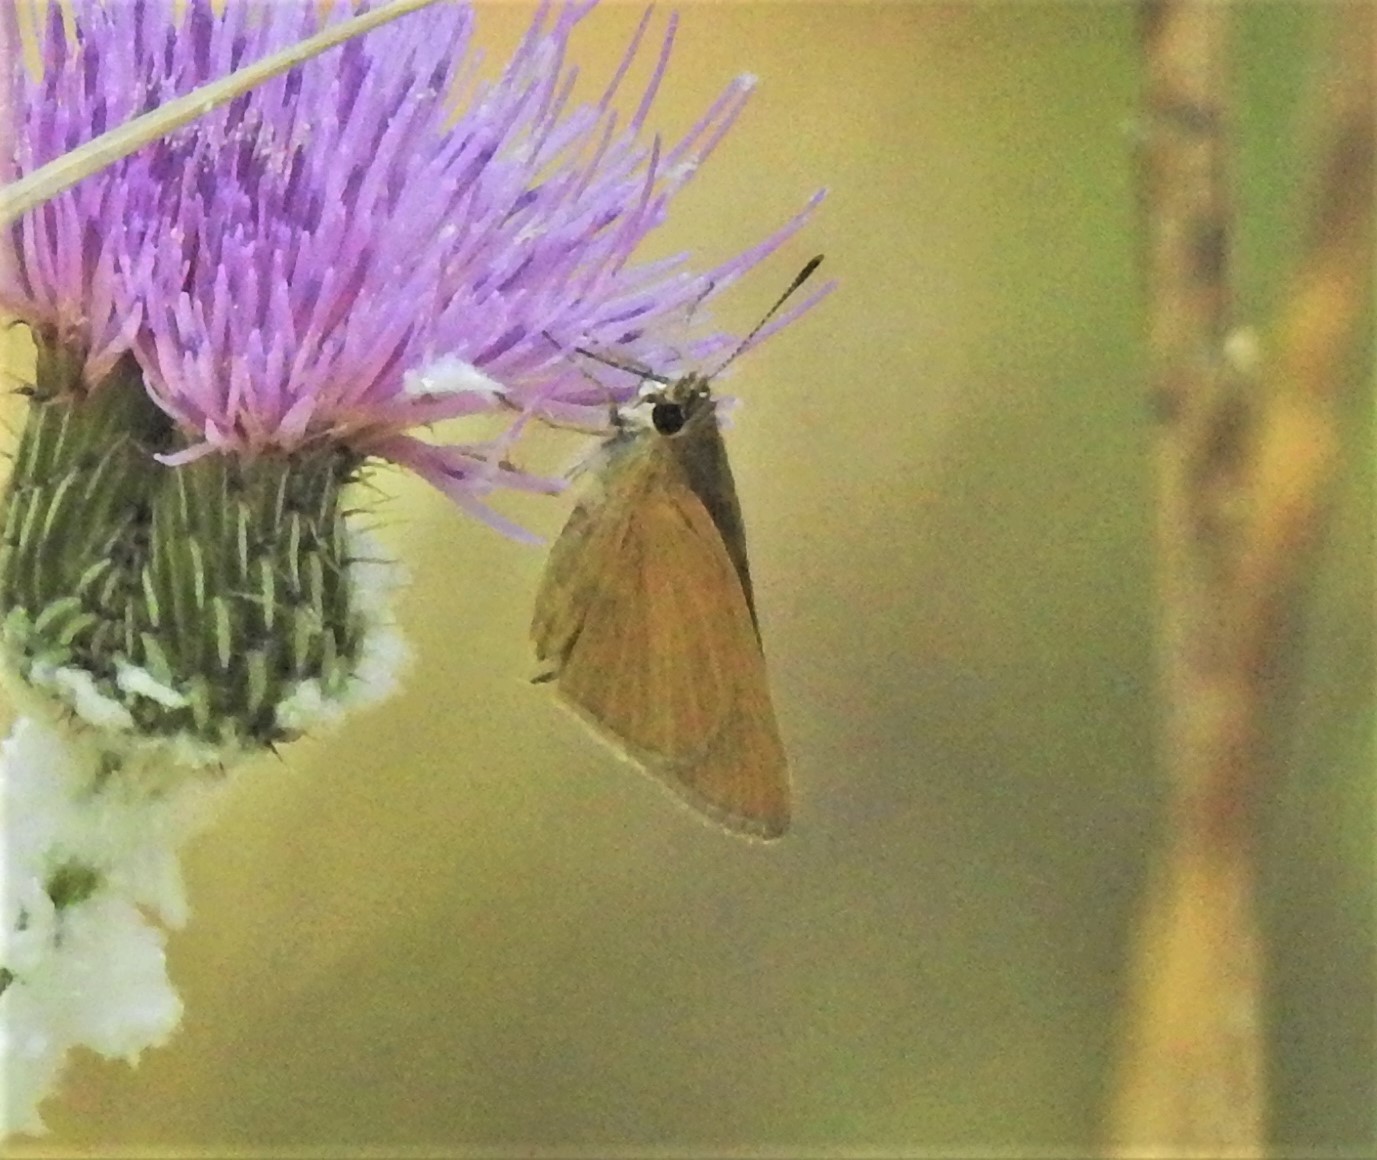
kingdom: Animalia
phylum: Arthropoda
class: Insecta
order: Lepidoptera
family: Hesperiidae
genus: Euphyes
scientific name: Euphyes vestris
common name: Dun skipper
